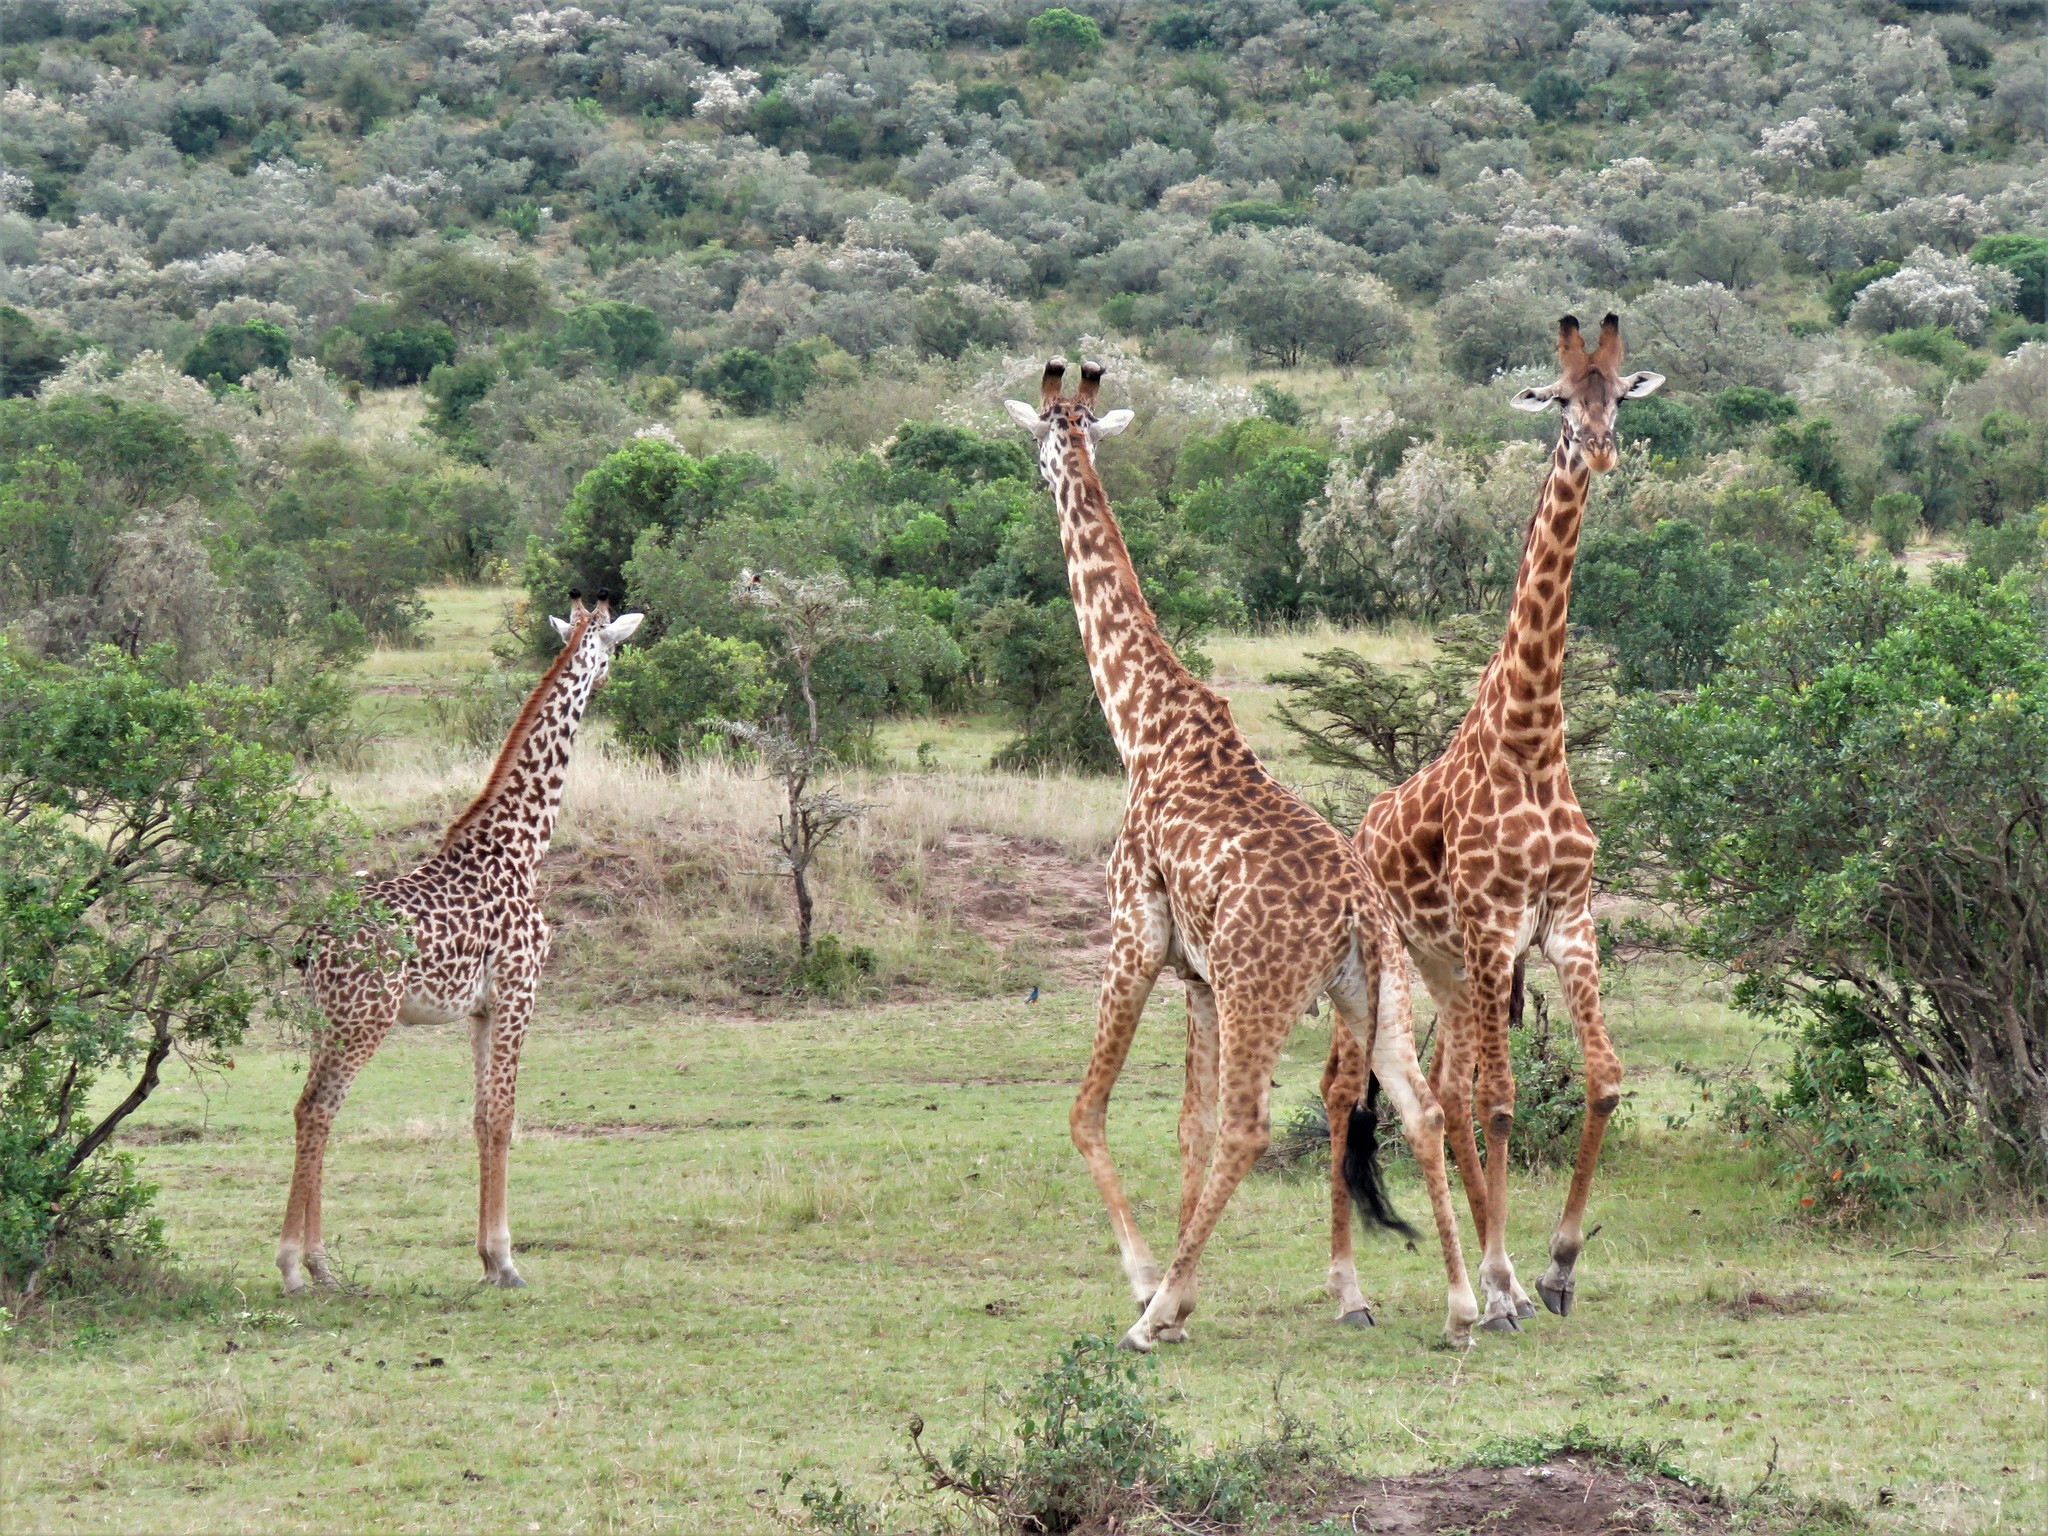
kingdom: Animalia
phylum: Chordata
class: Mammalia
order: Artiodactyla
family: Giraffidae
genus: Giraffa
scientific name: Giraffa tippelskirchi
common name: Masai giraffe
